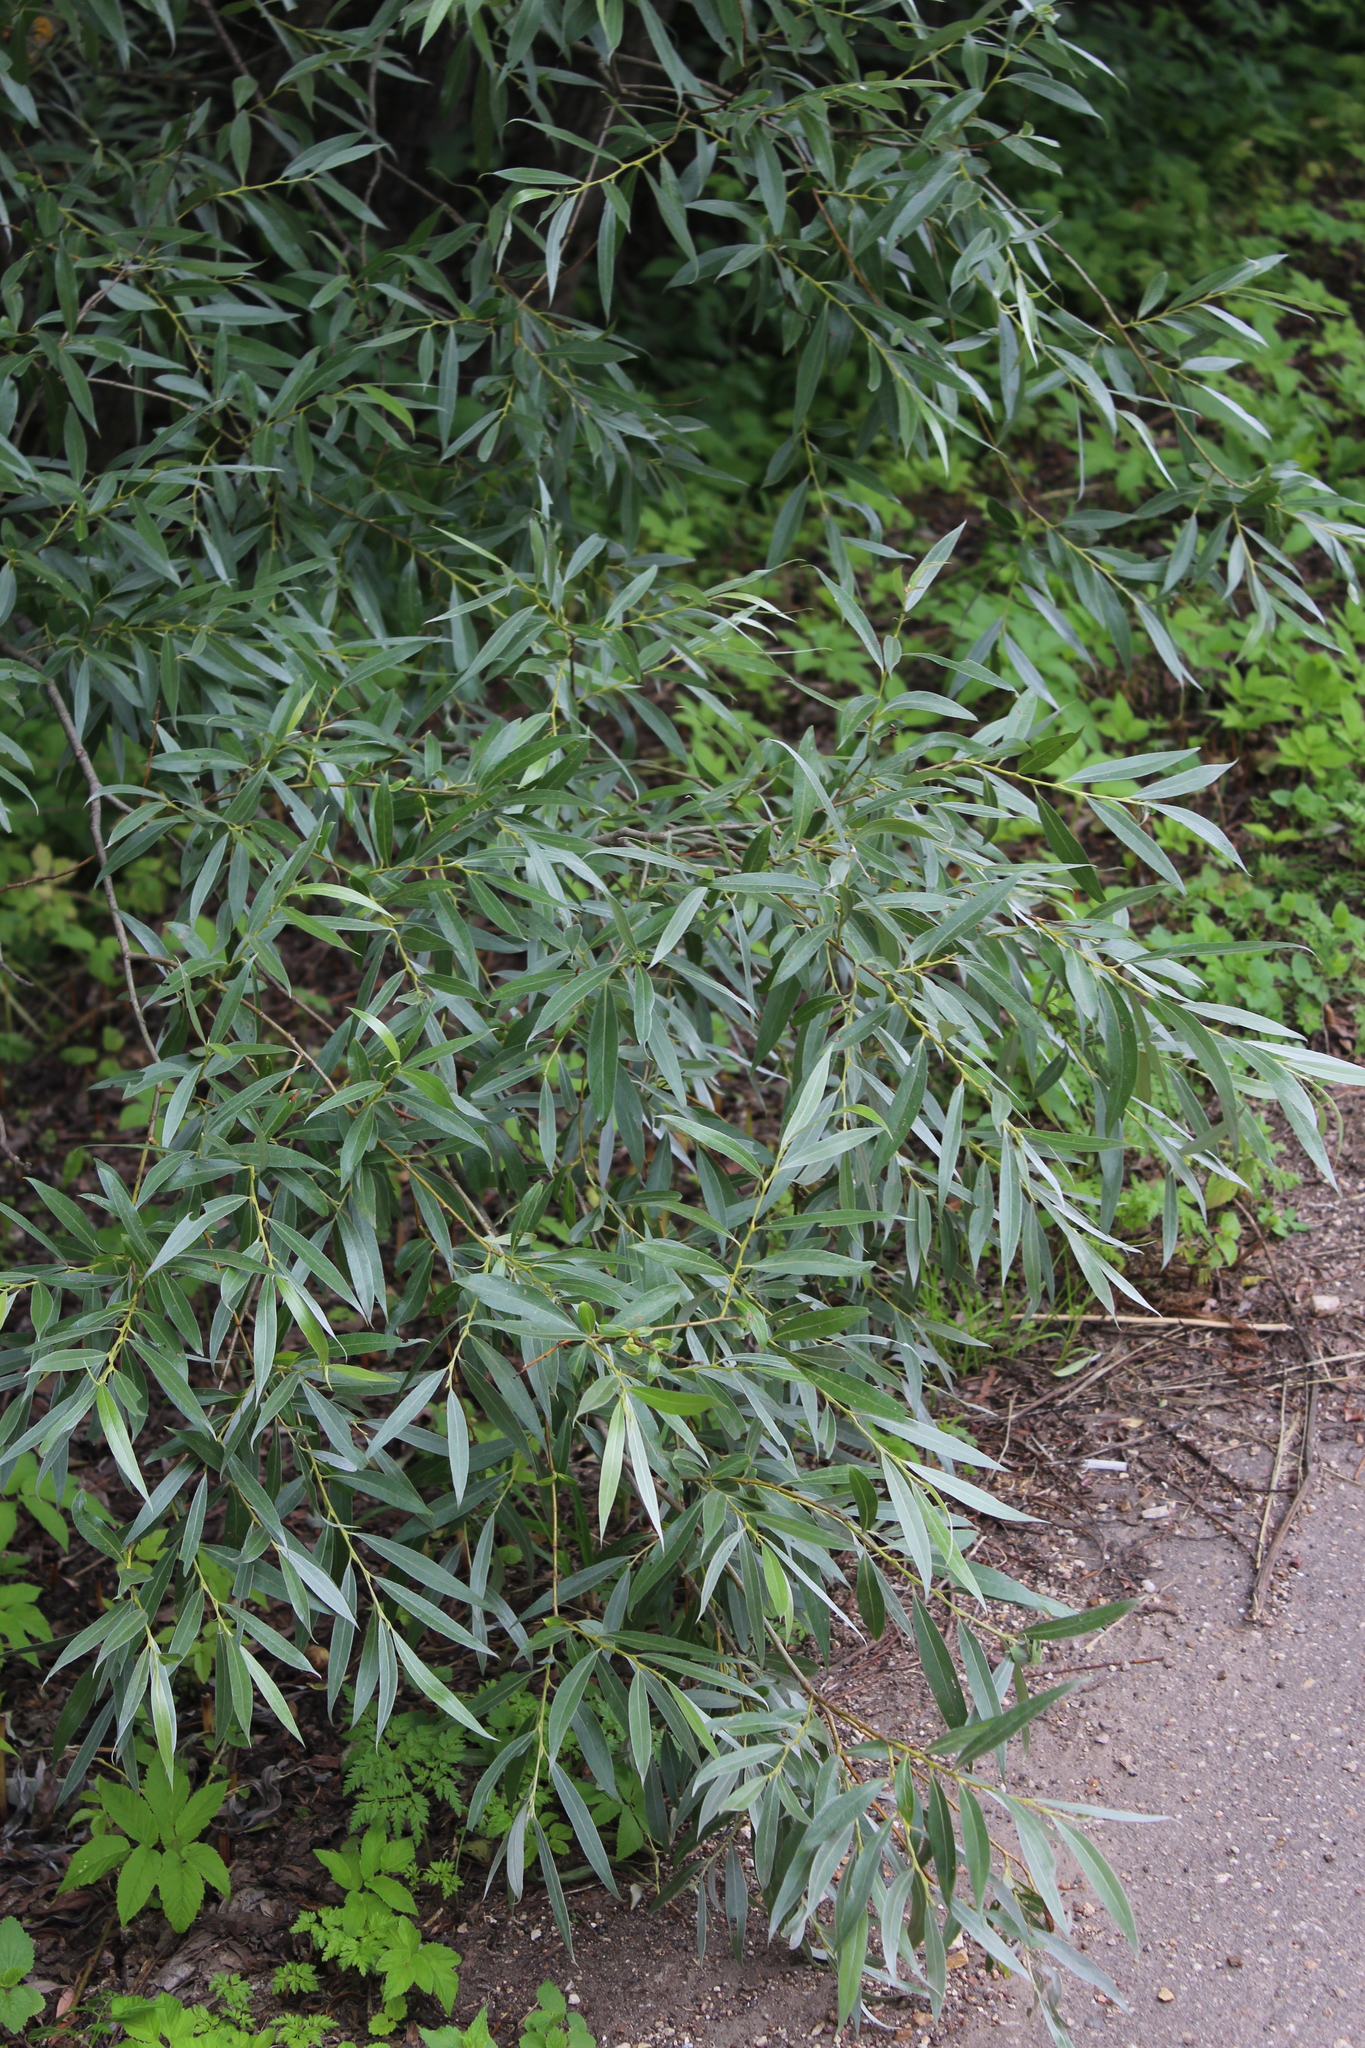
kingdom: Plantae
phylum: Tracheophyta
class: Magnoliopsida
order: Malpighiales
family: Salicaceae
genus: Salix
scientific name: Salix alba
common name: White willow
